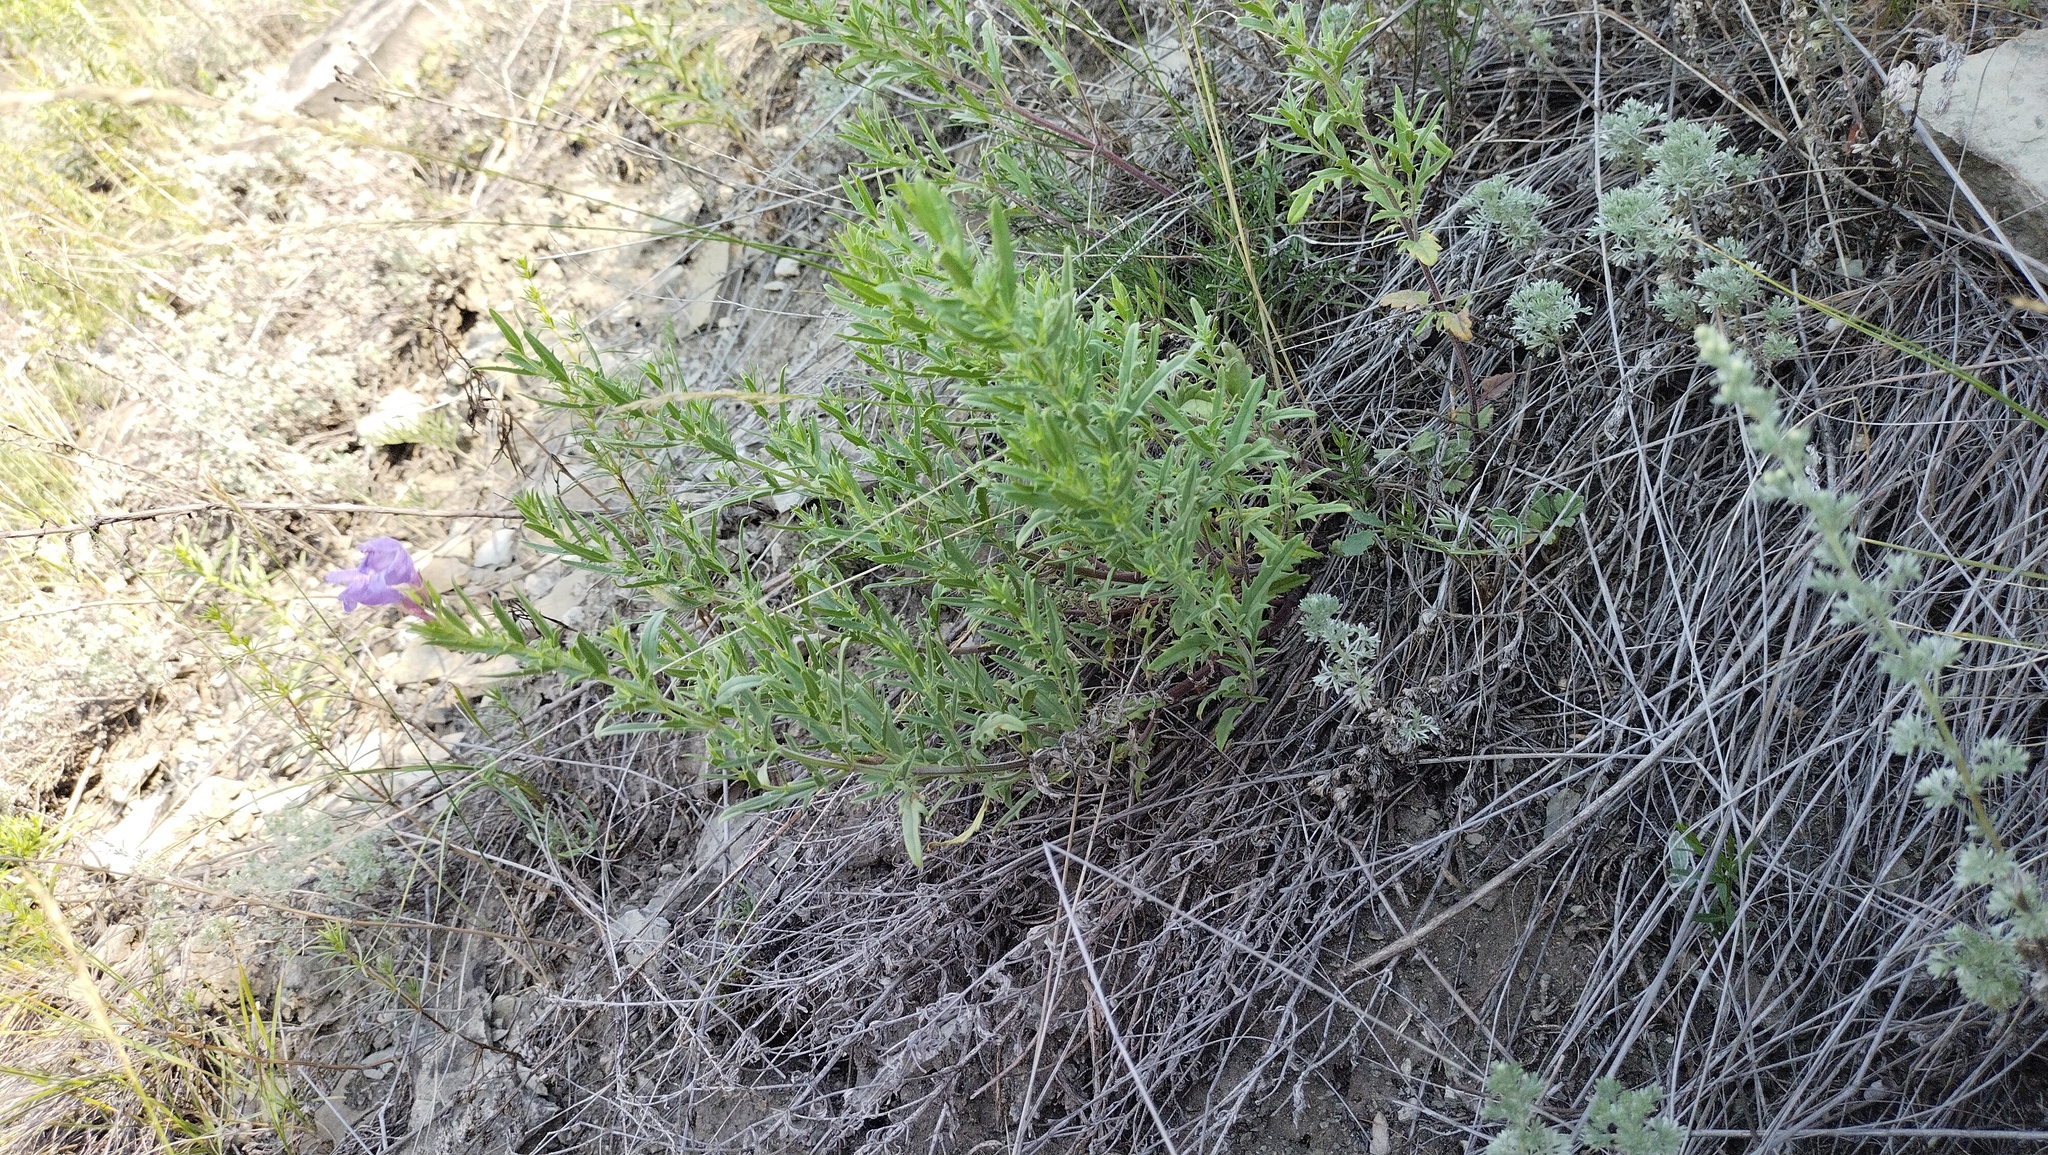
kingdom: Plantae
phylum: Tracheophyta
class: Magnoliopsida
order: Lamiales
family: Lamiaceae
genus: Dracocephalum
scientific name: Dracocephalum peregrinum
